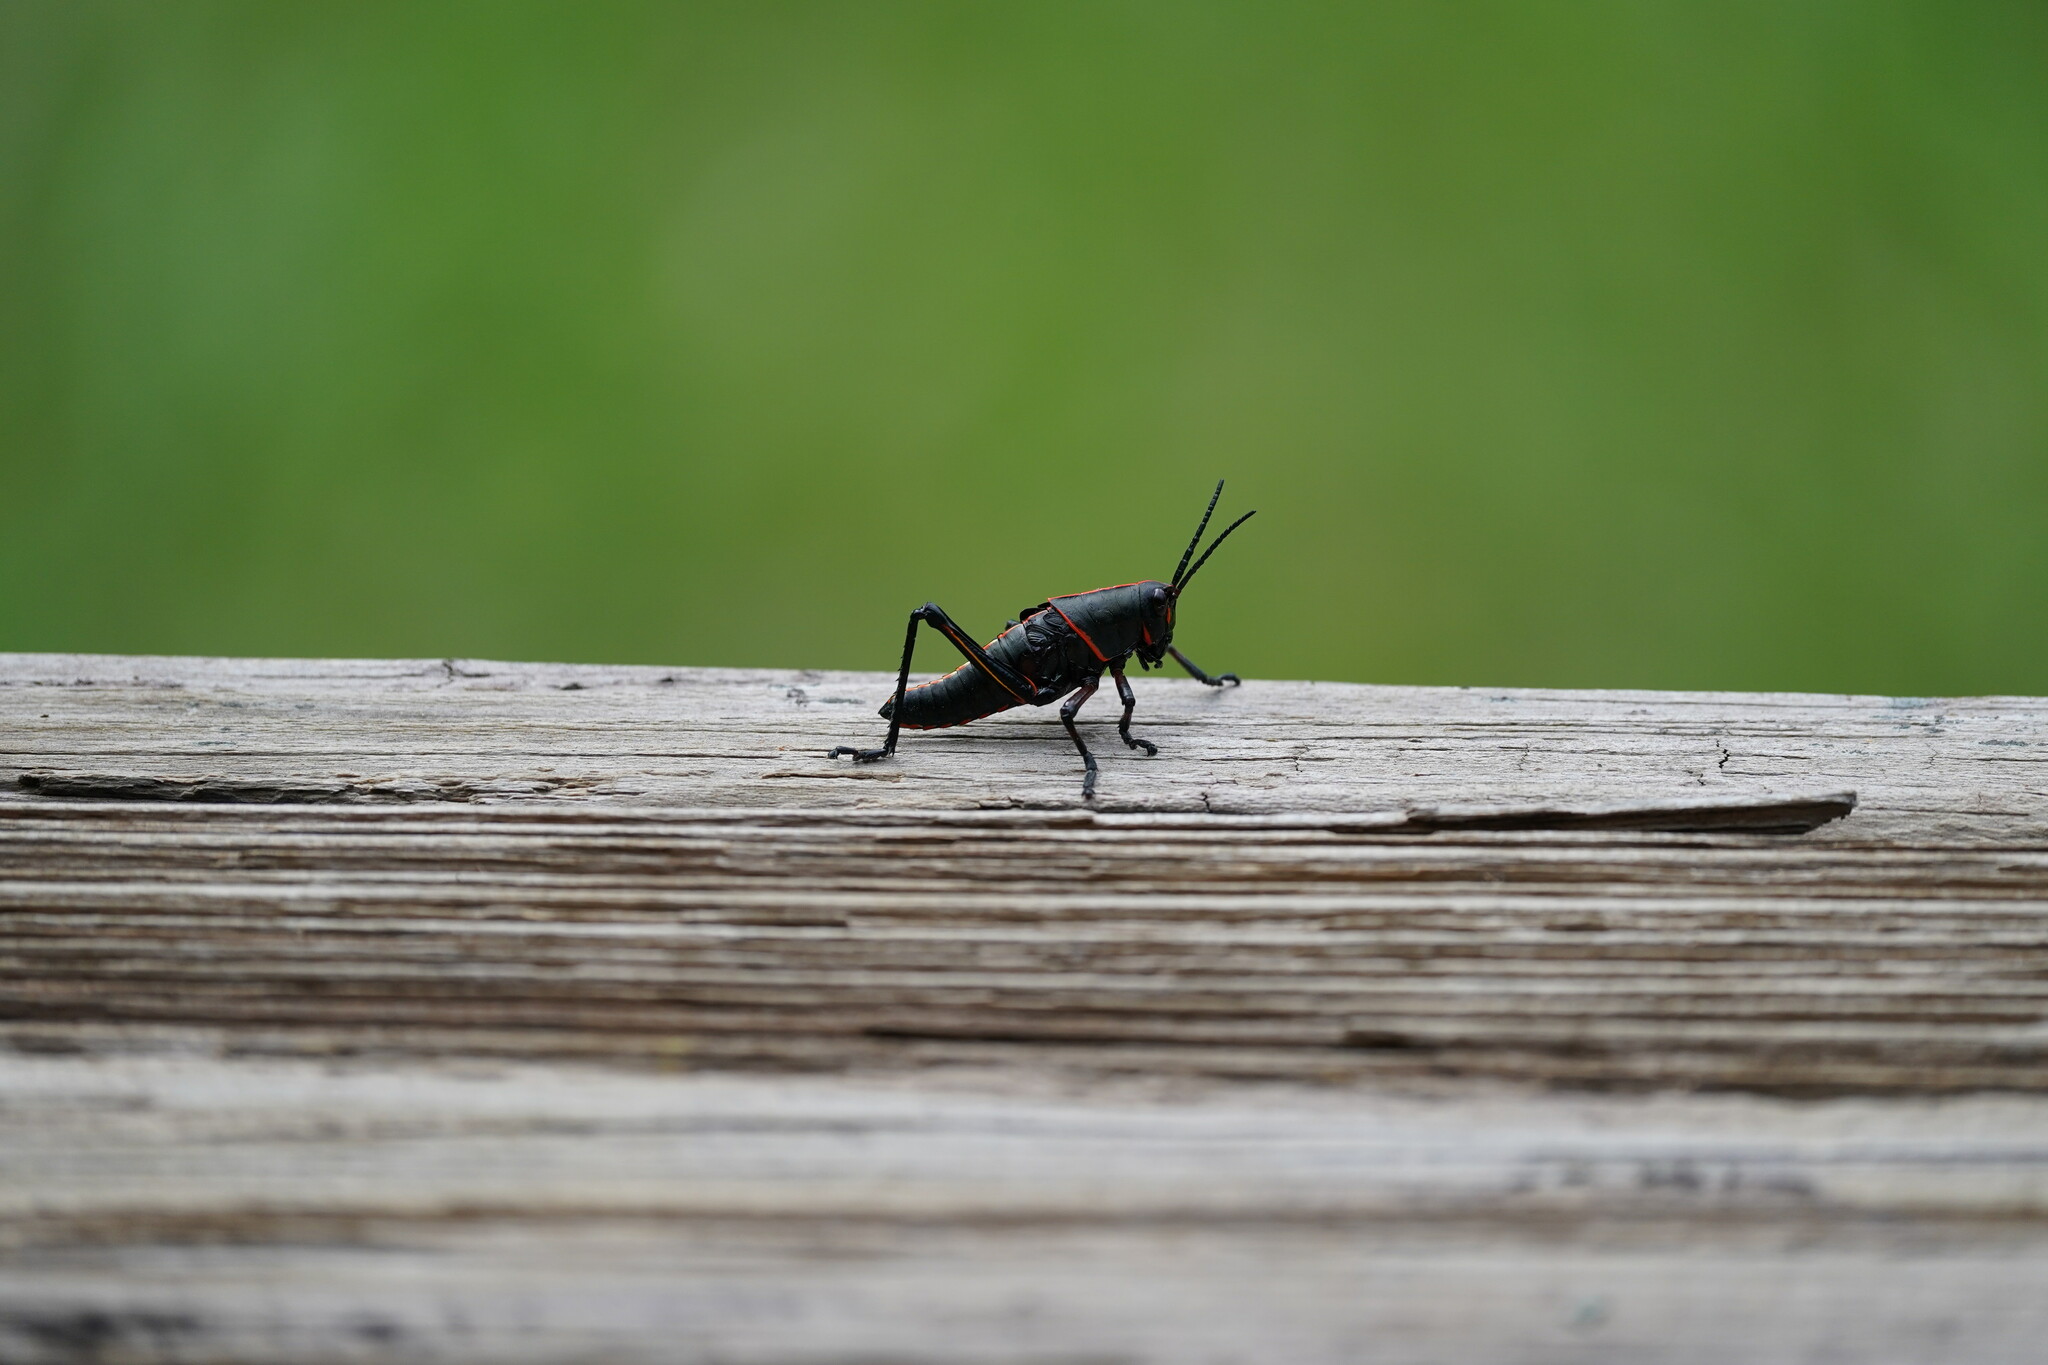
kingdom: Animalia
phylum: Arthropoda
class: Insecta
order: Orthoptera
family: Romaleidae
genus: Romalea
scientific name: Romalea microptera
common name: Eastern lubber grasshopper
